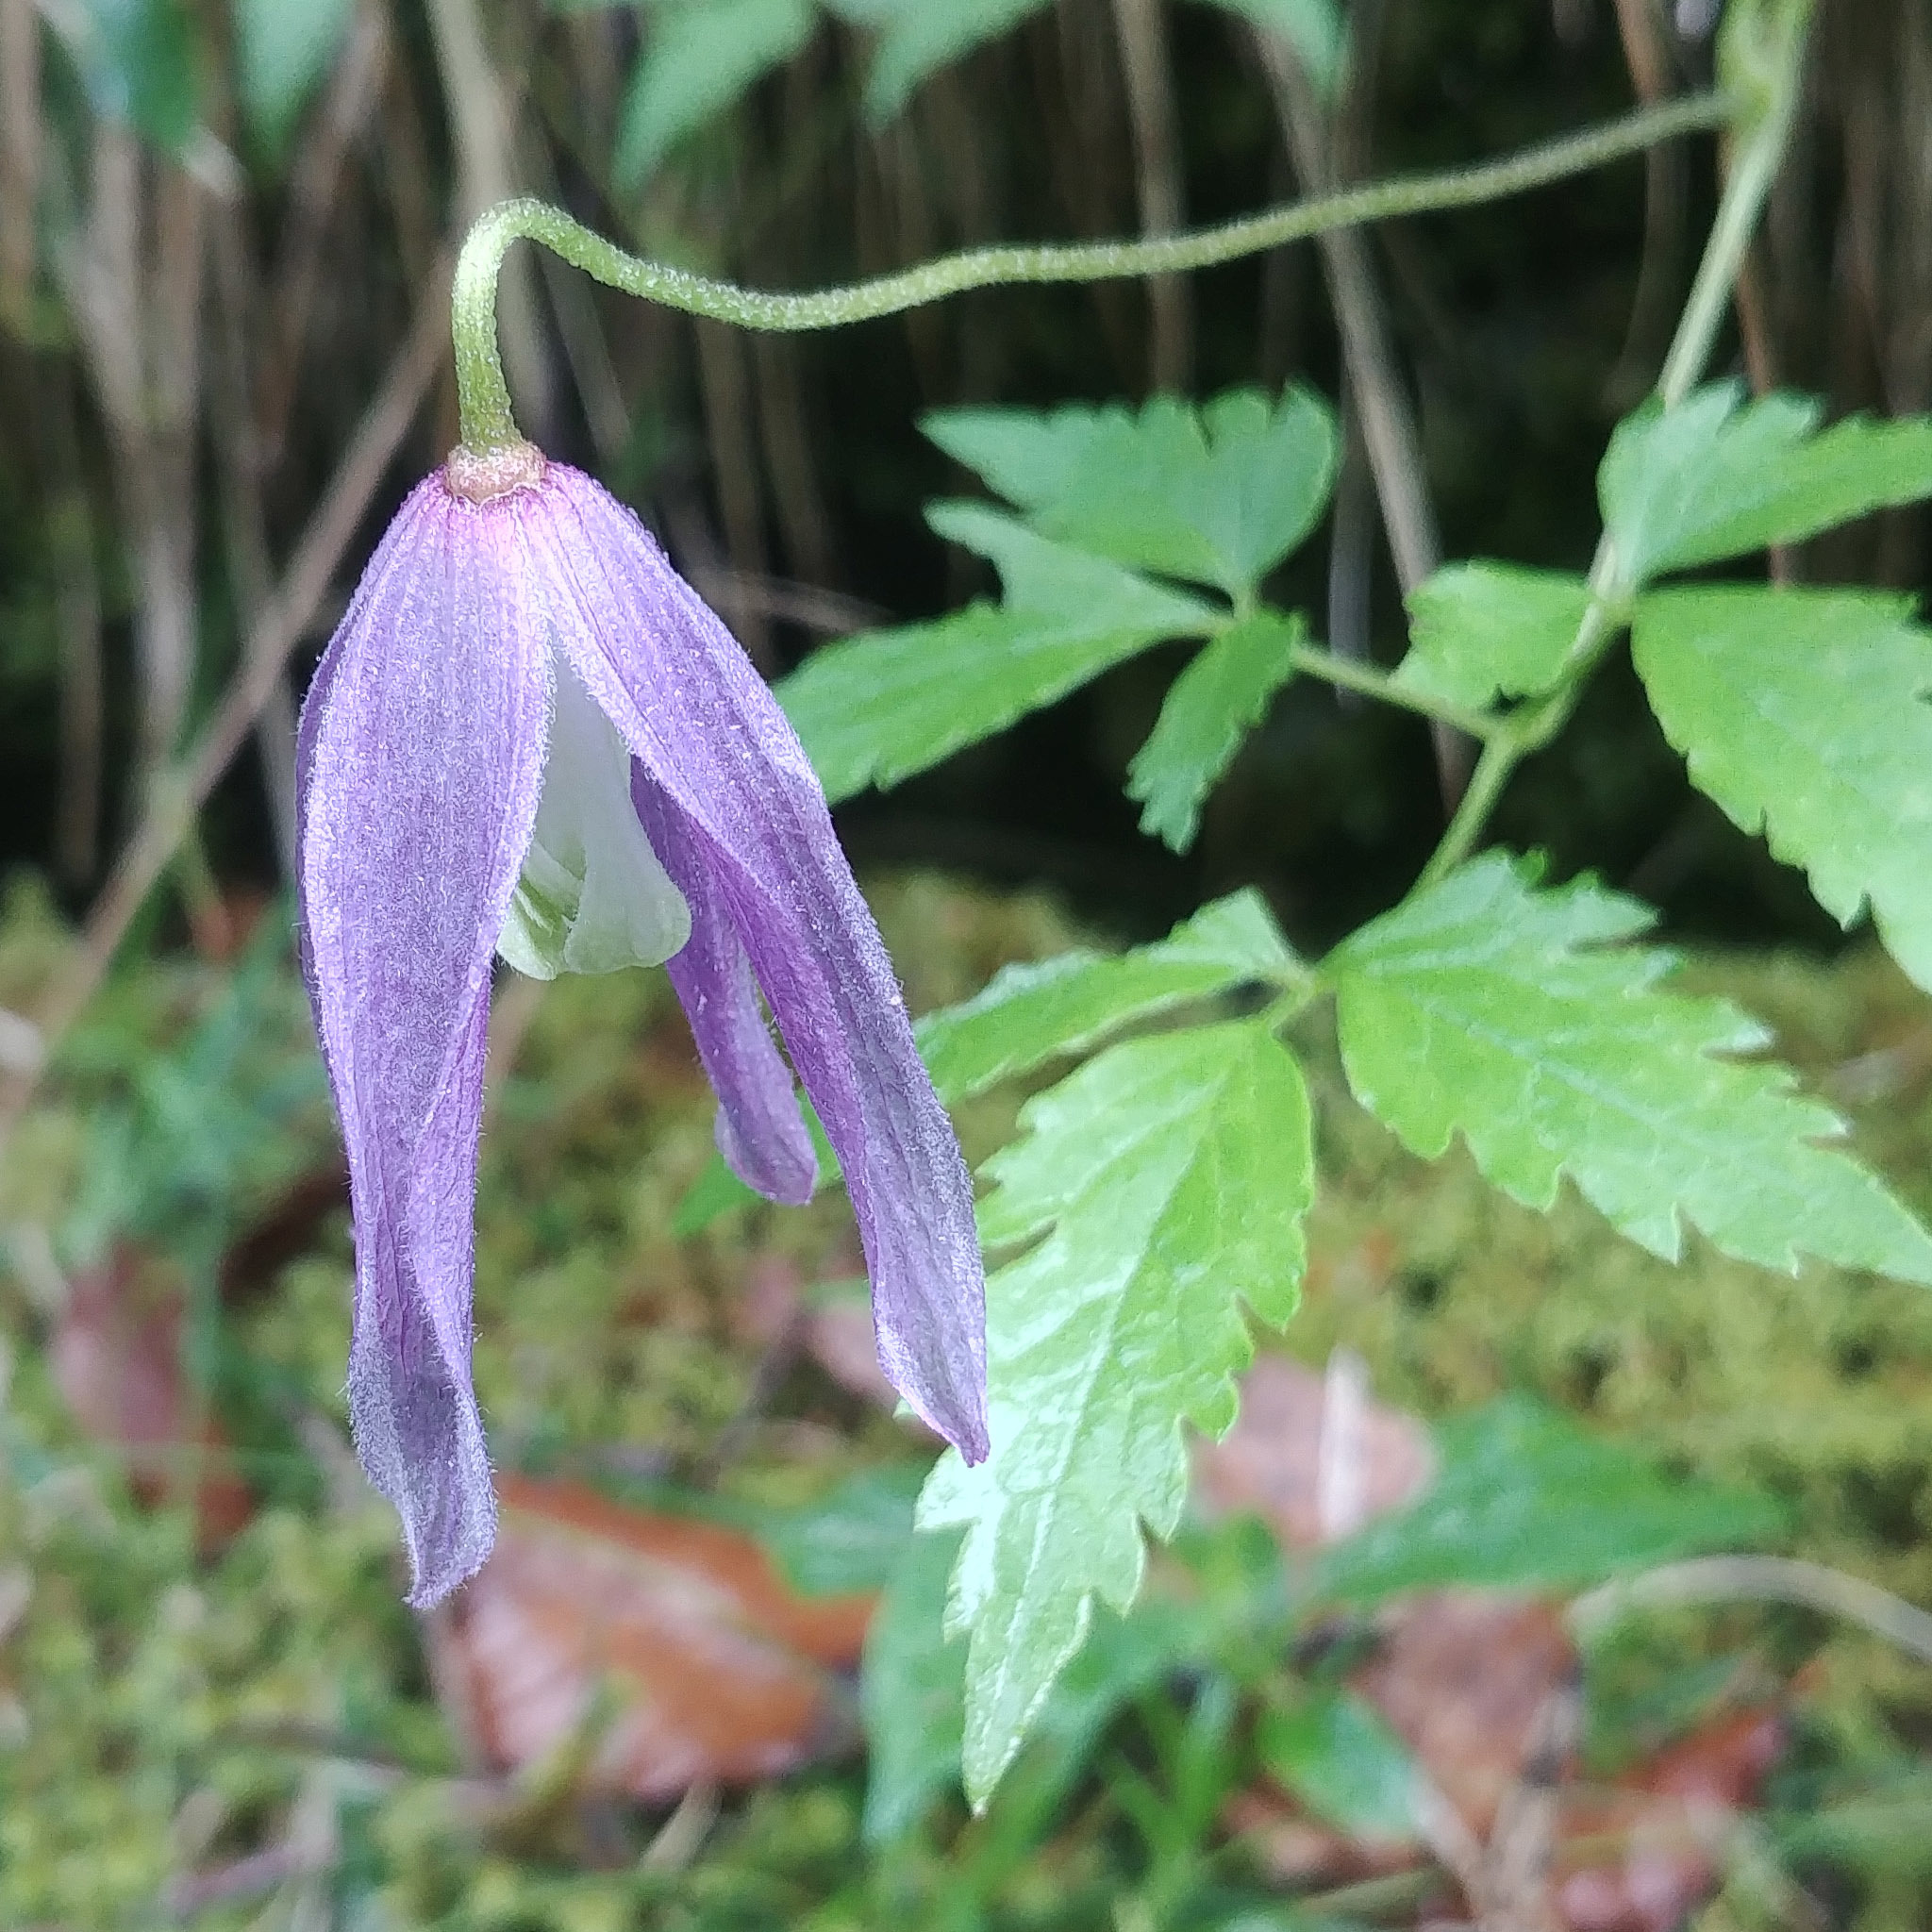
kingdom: Plantae
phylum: Tracheophyta
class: Magnoliopsida
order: Ranunculales
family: Ranunculaceae
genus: Clematis
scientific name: Clematis alpina
